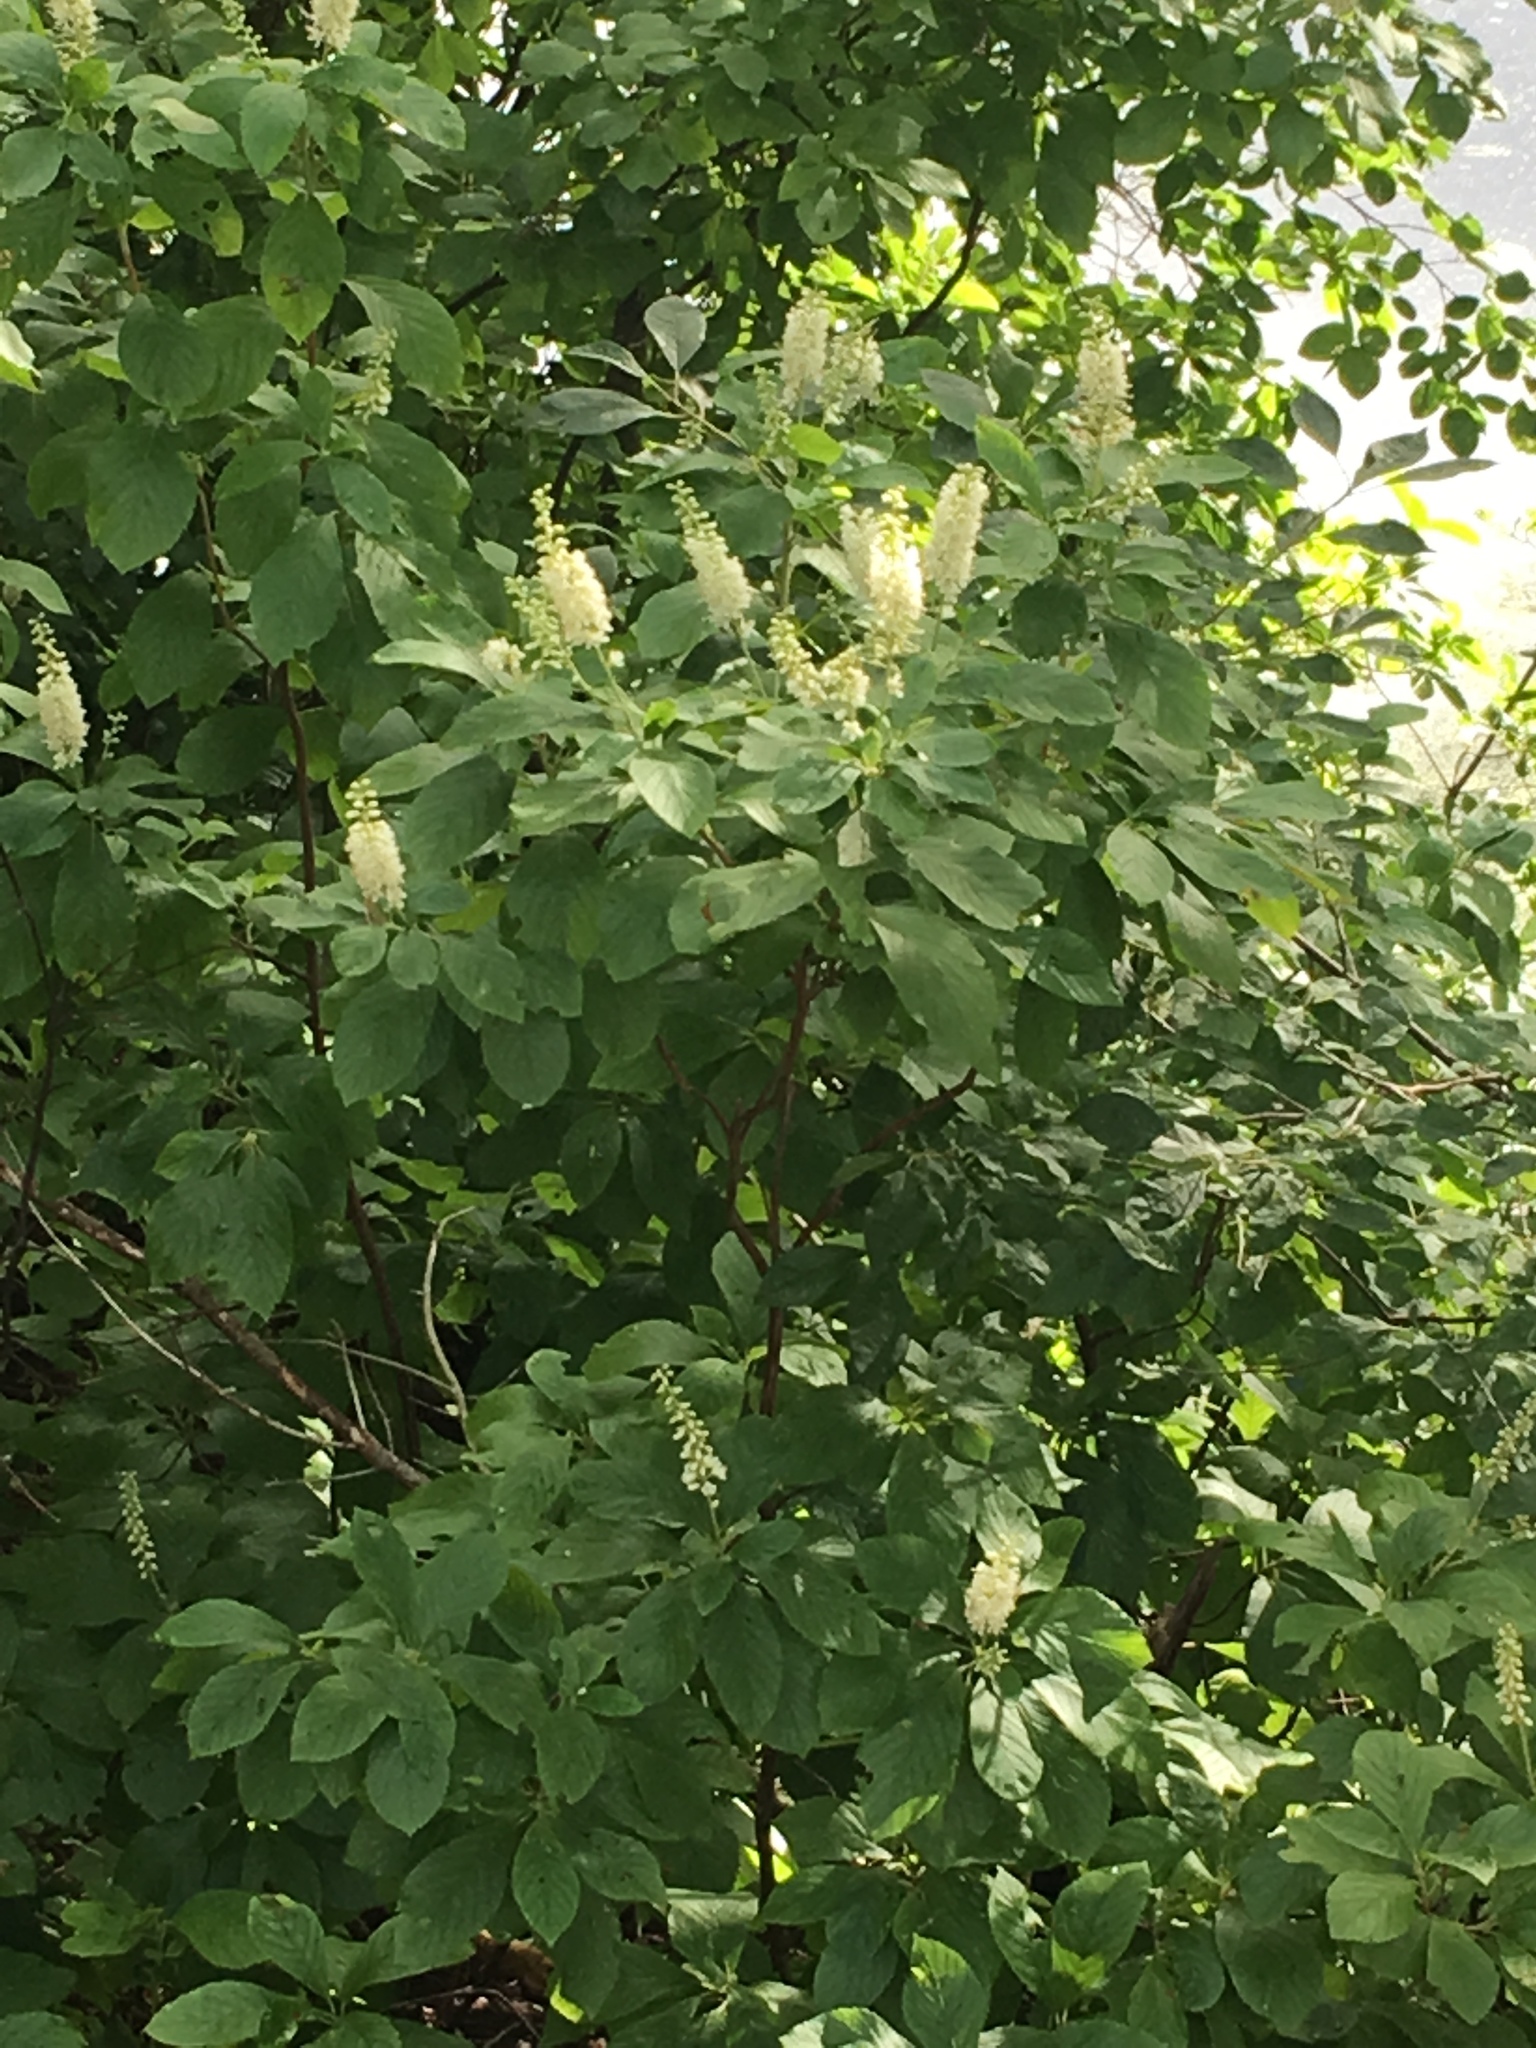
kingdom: Plantae
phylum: Tracheophyta
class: Magnoliopsida
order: Ericales
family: Clethraceae
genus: Clethra
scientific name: Clethra alnifolia
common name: Sweet pepperbush
